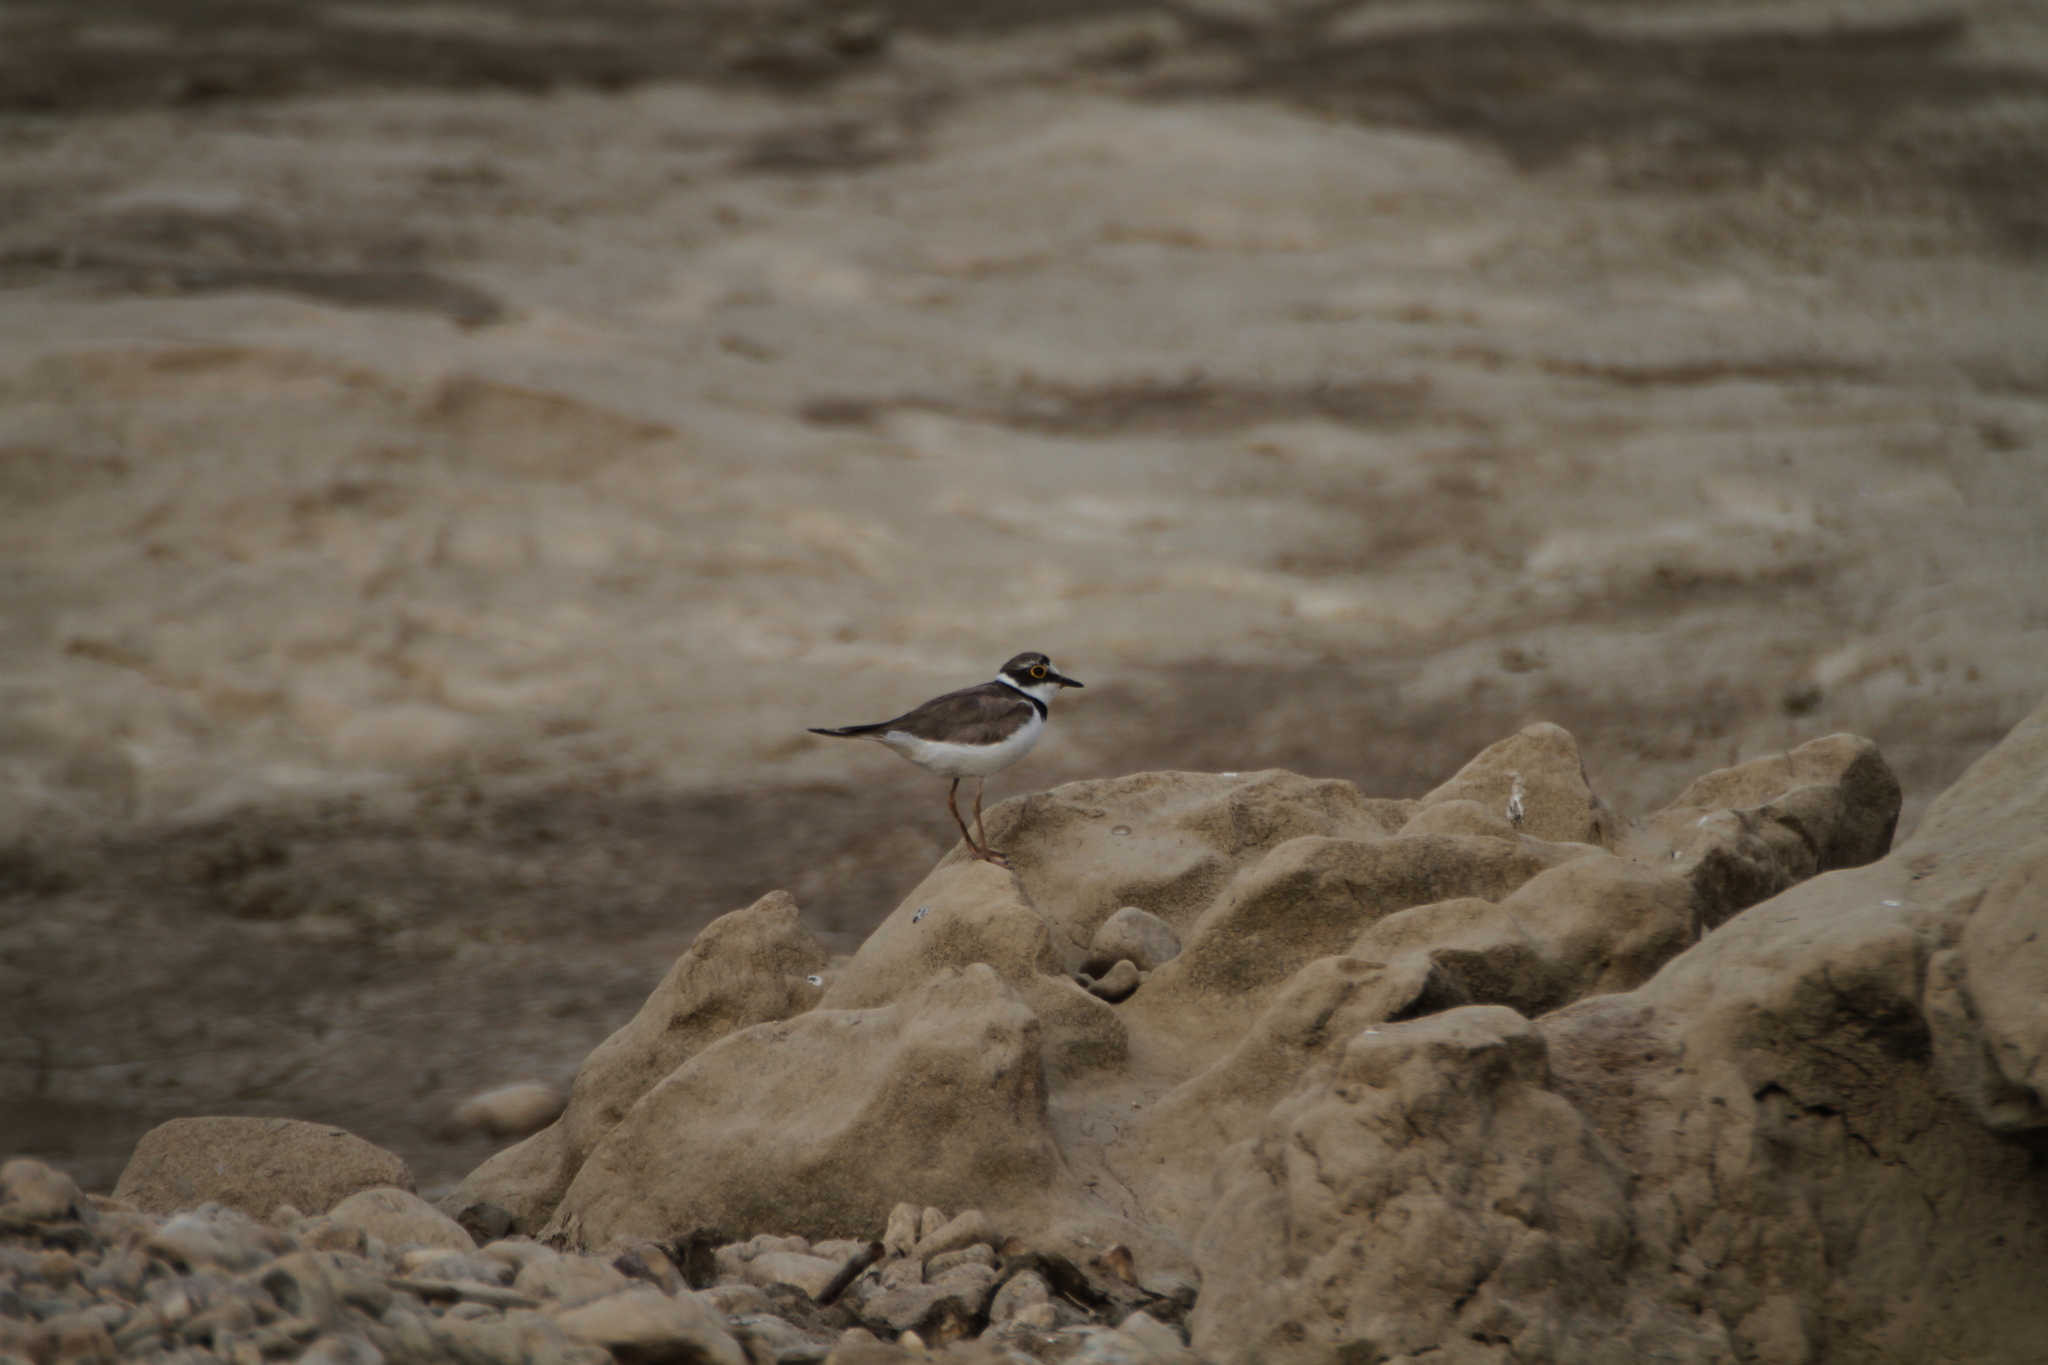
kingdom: Animalia
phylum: Chordata
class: Aves
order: Charadriiformes
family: Charadriidae
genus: Charadrius
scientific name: Charadrius dubius
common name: Little ringed plover
